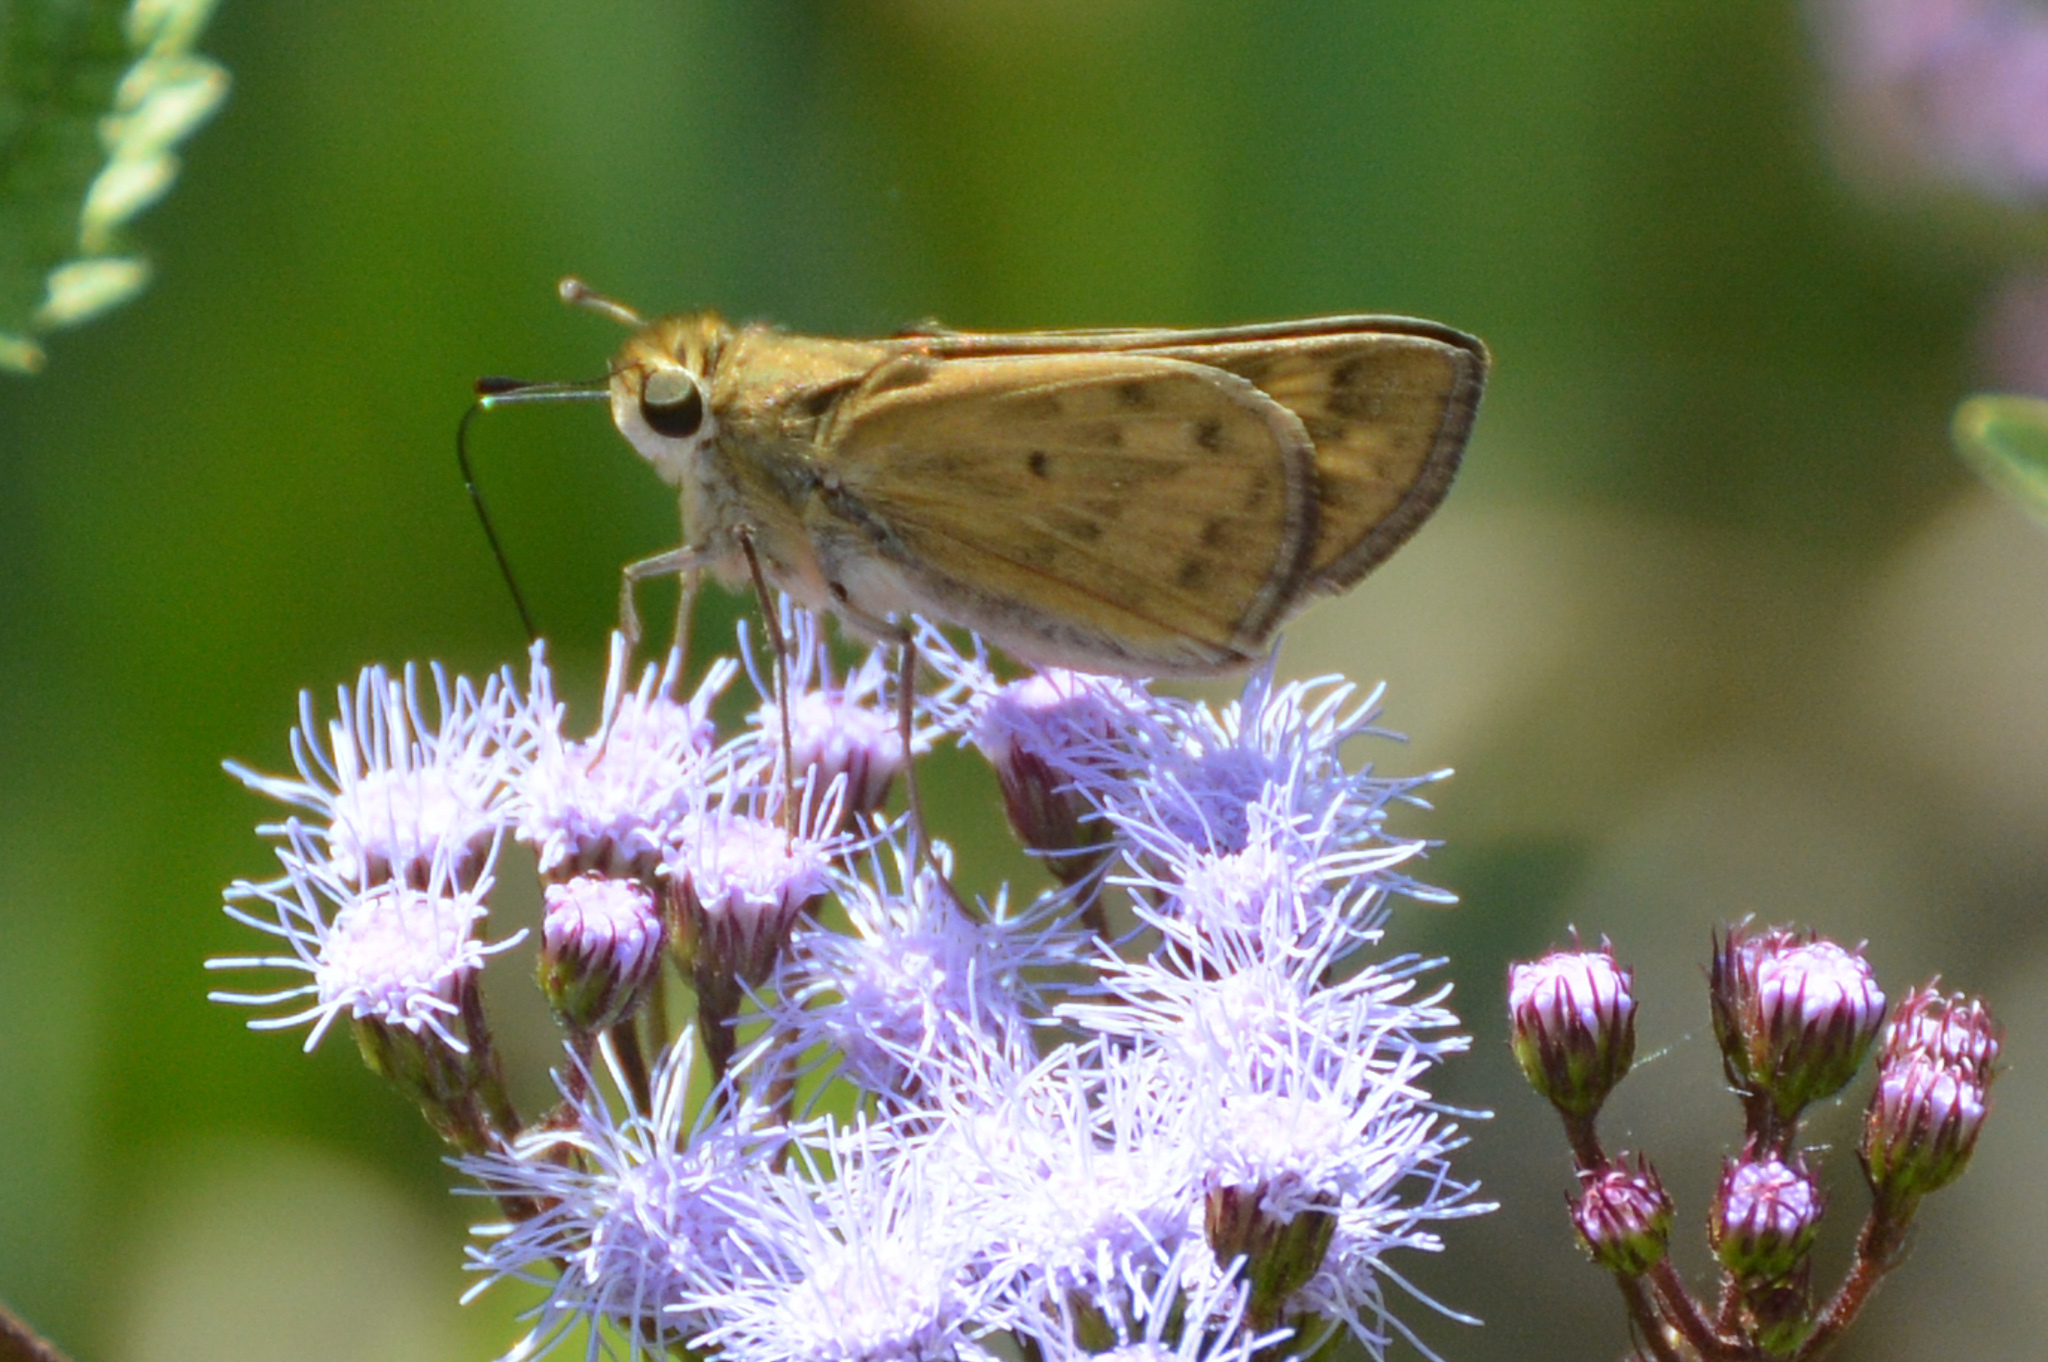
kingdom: Animalia
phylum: Arthropoda
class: Insecta
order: Lepidoptera
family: Hesperiidae
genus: Hylephila
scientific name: Hylephila phyleus
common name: Fiery skipper
